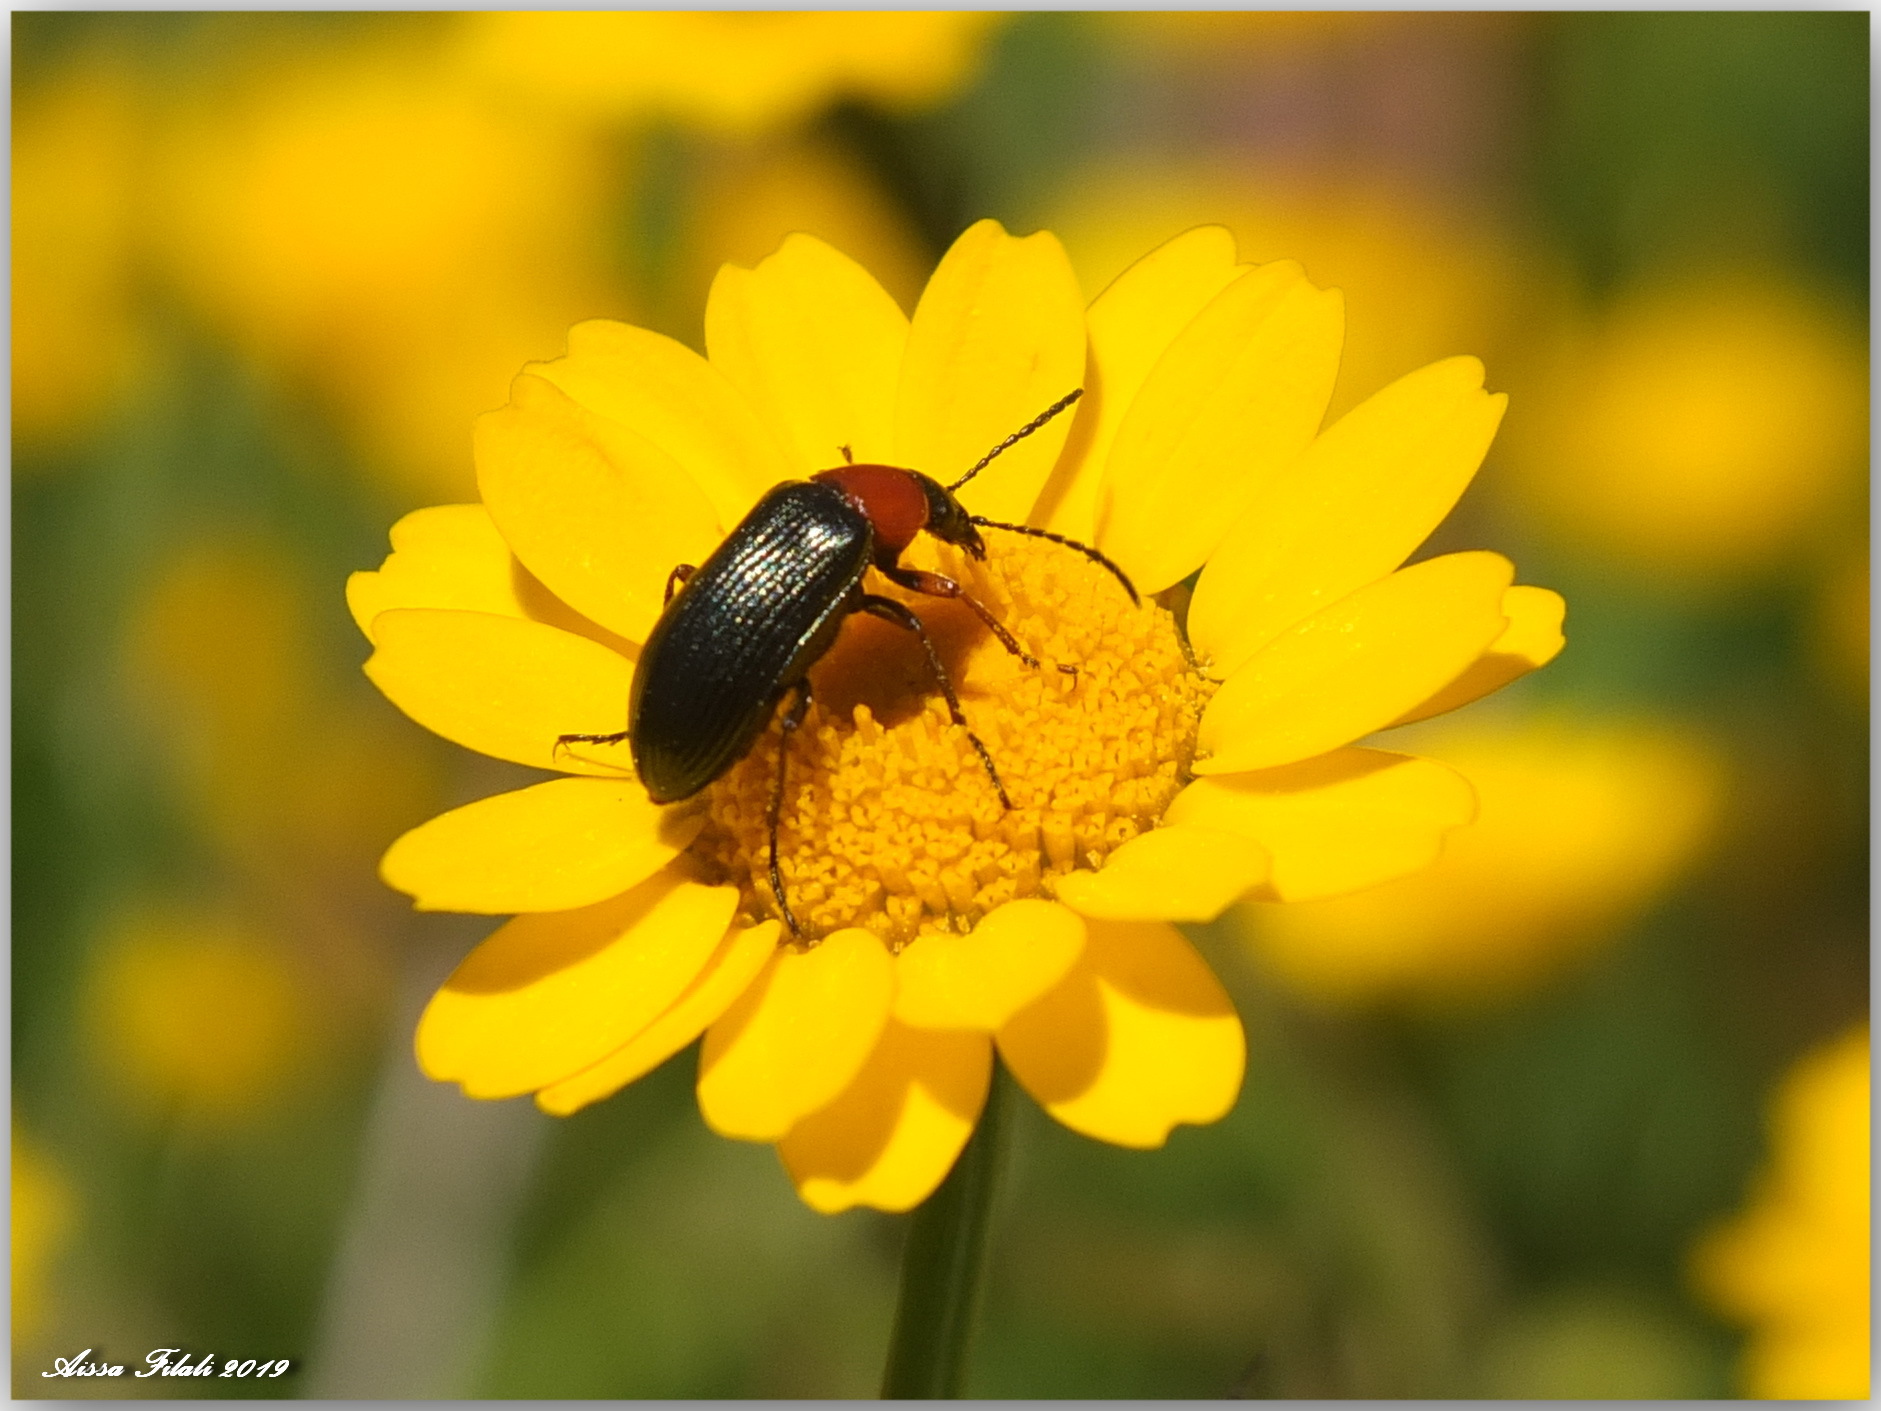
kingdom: Animalia
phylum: Arthropoda
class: Insecta
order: Coleoptera
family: Tenebrionidae
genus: Heliotaurus
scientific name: Heliotaurus ruficollis
